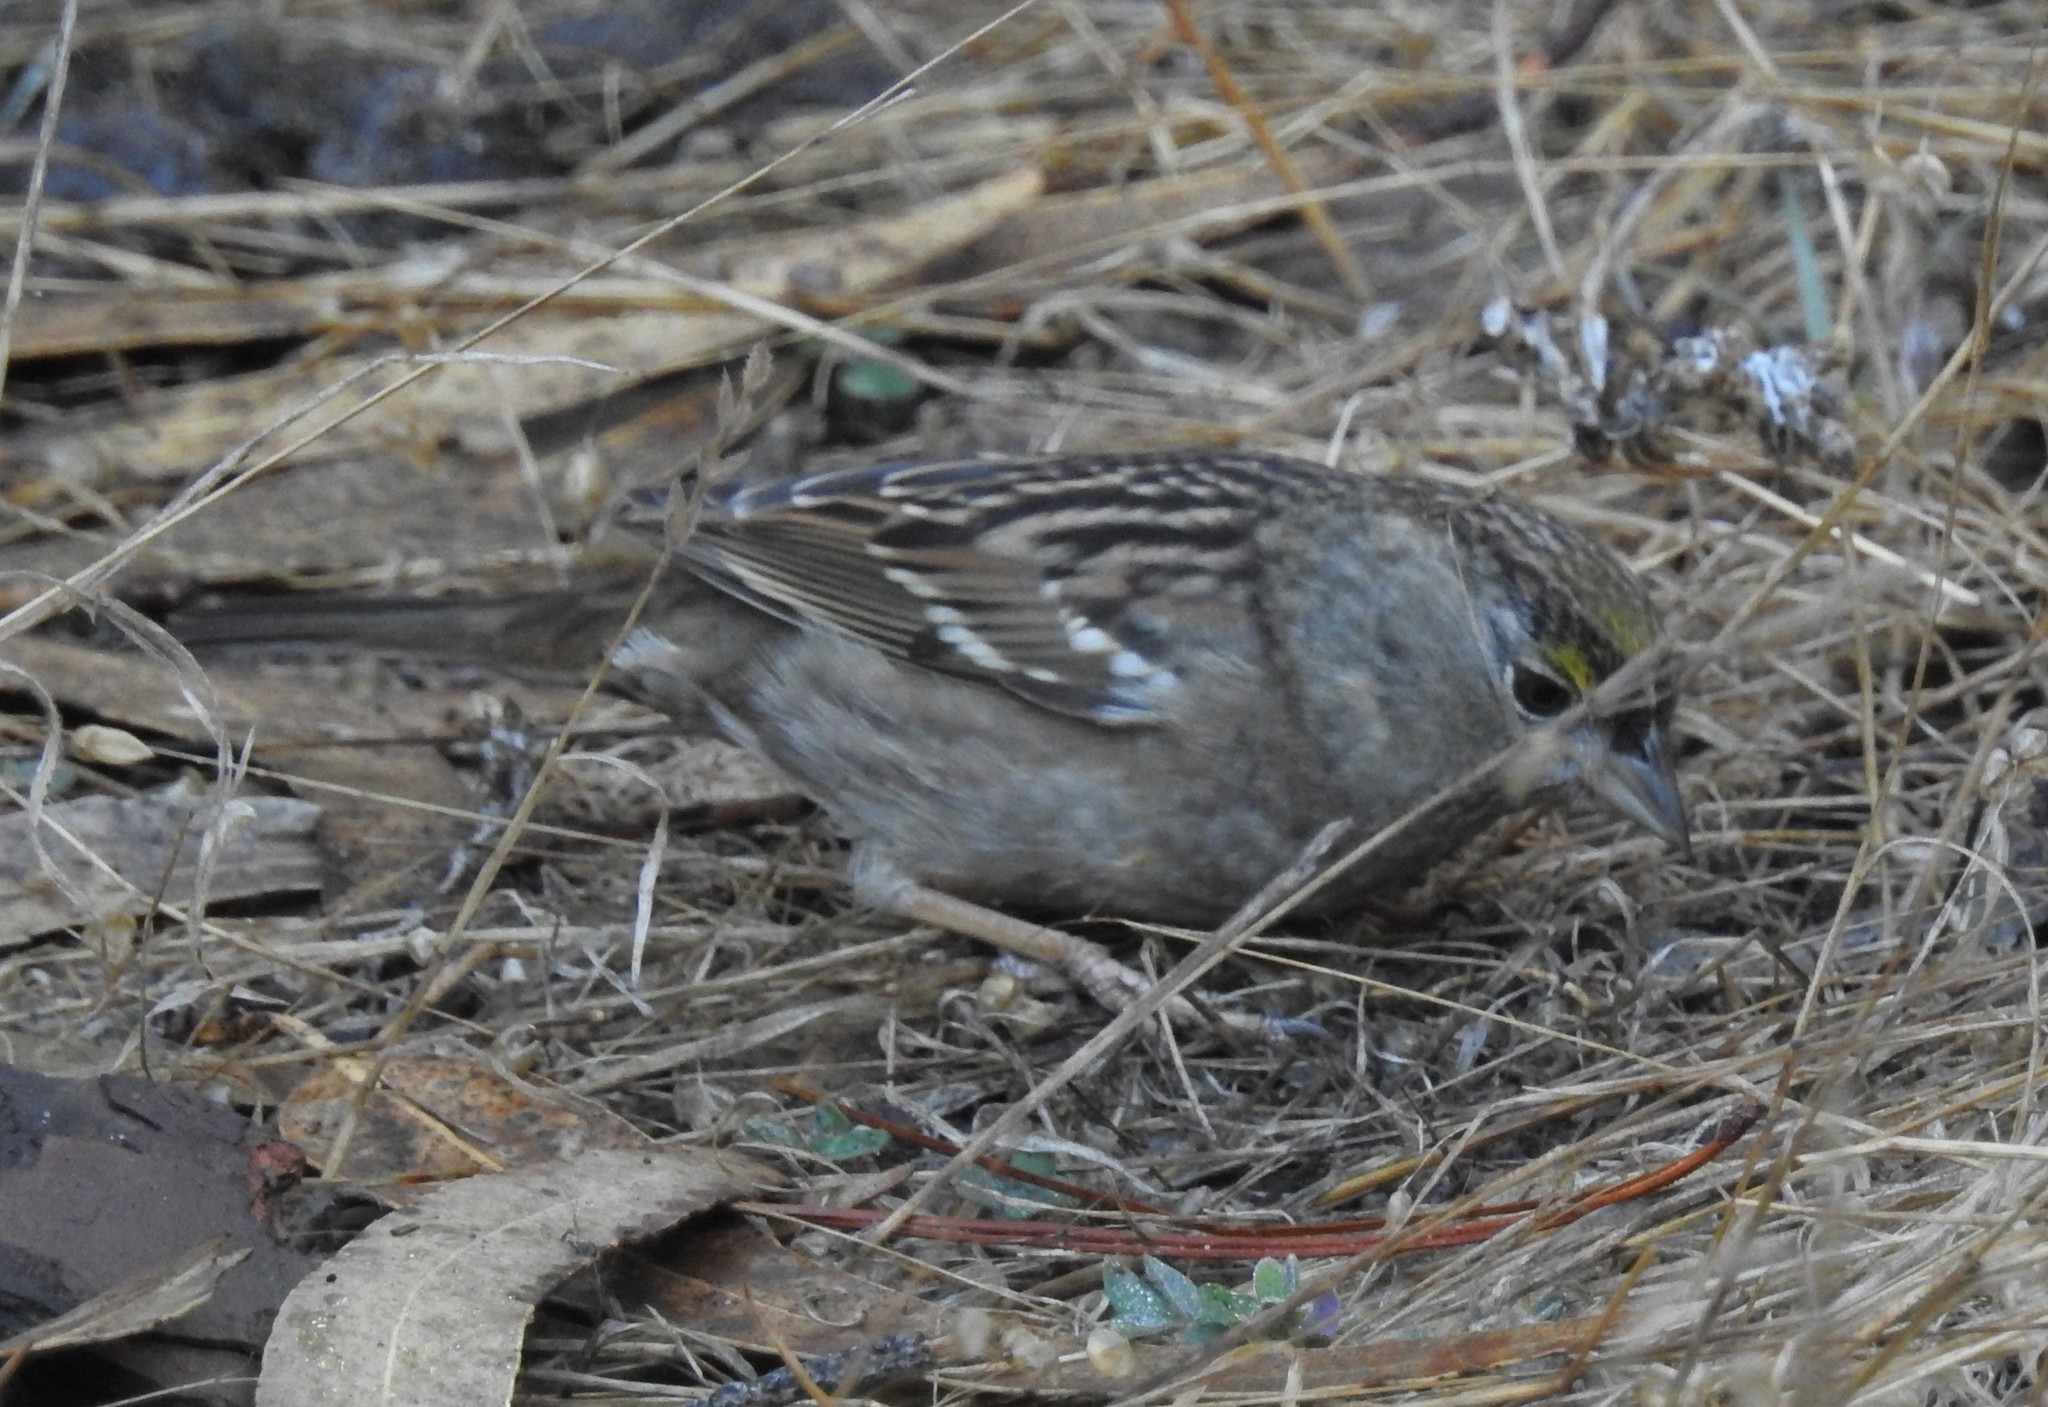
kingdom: Animalia
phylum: Chordata
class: Aves
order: Passeriformes
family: Passerellidae
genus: Zonotrichia
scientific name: Zonotrichia atricapilla
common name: Golden-crowned sparrow
